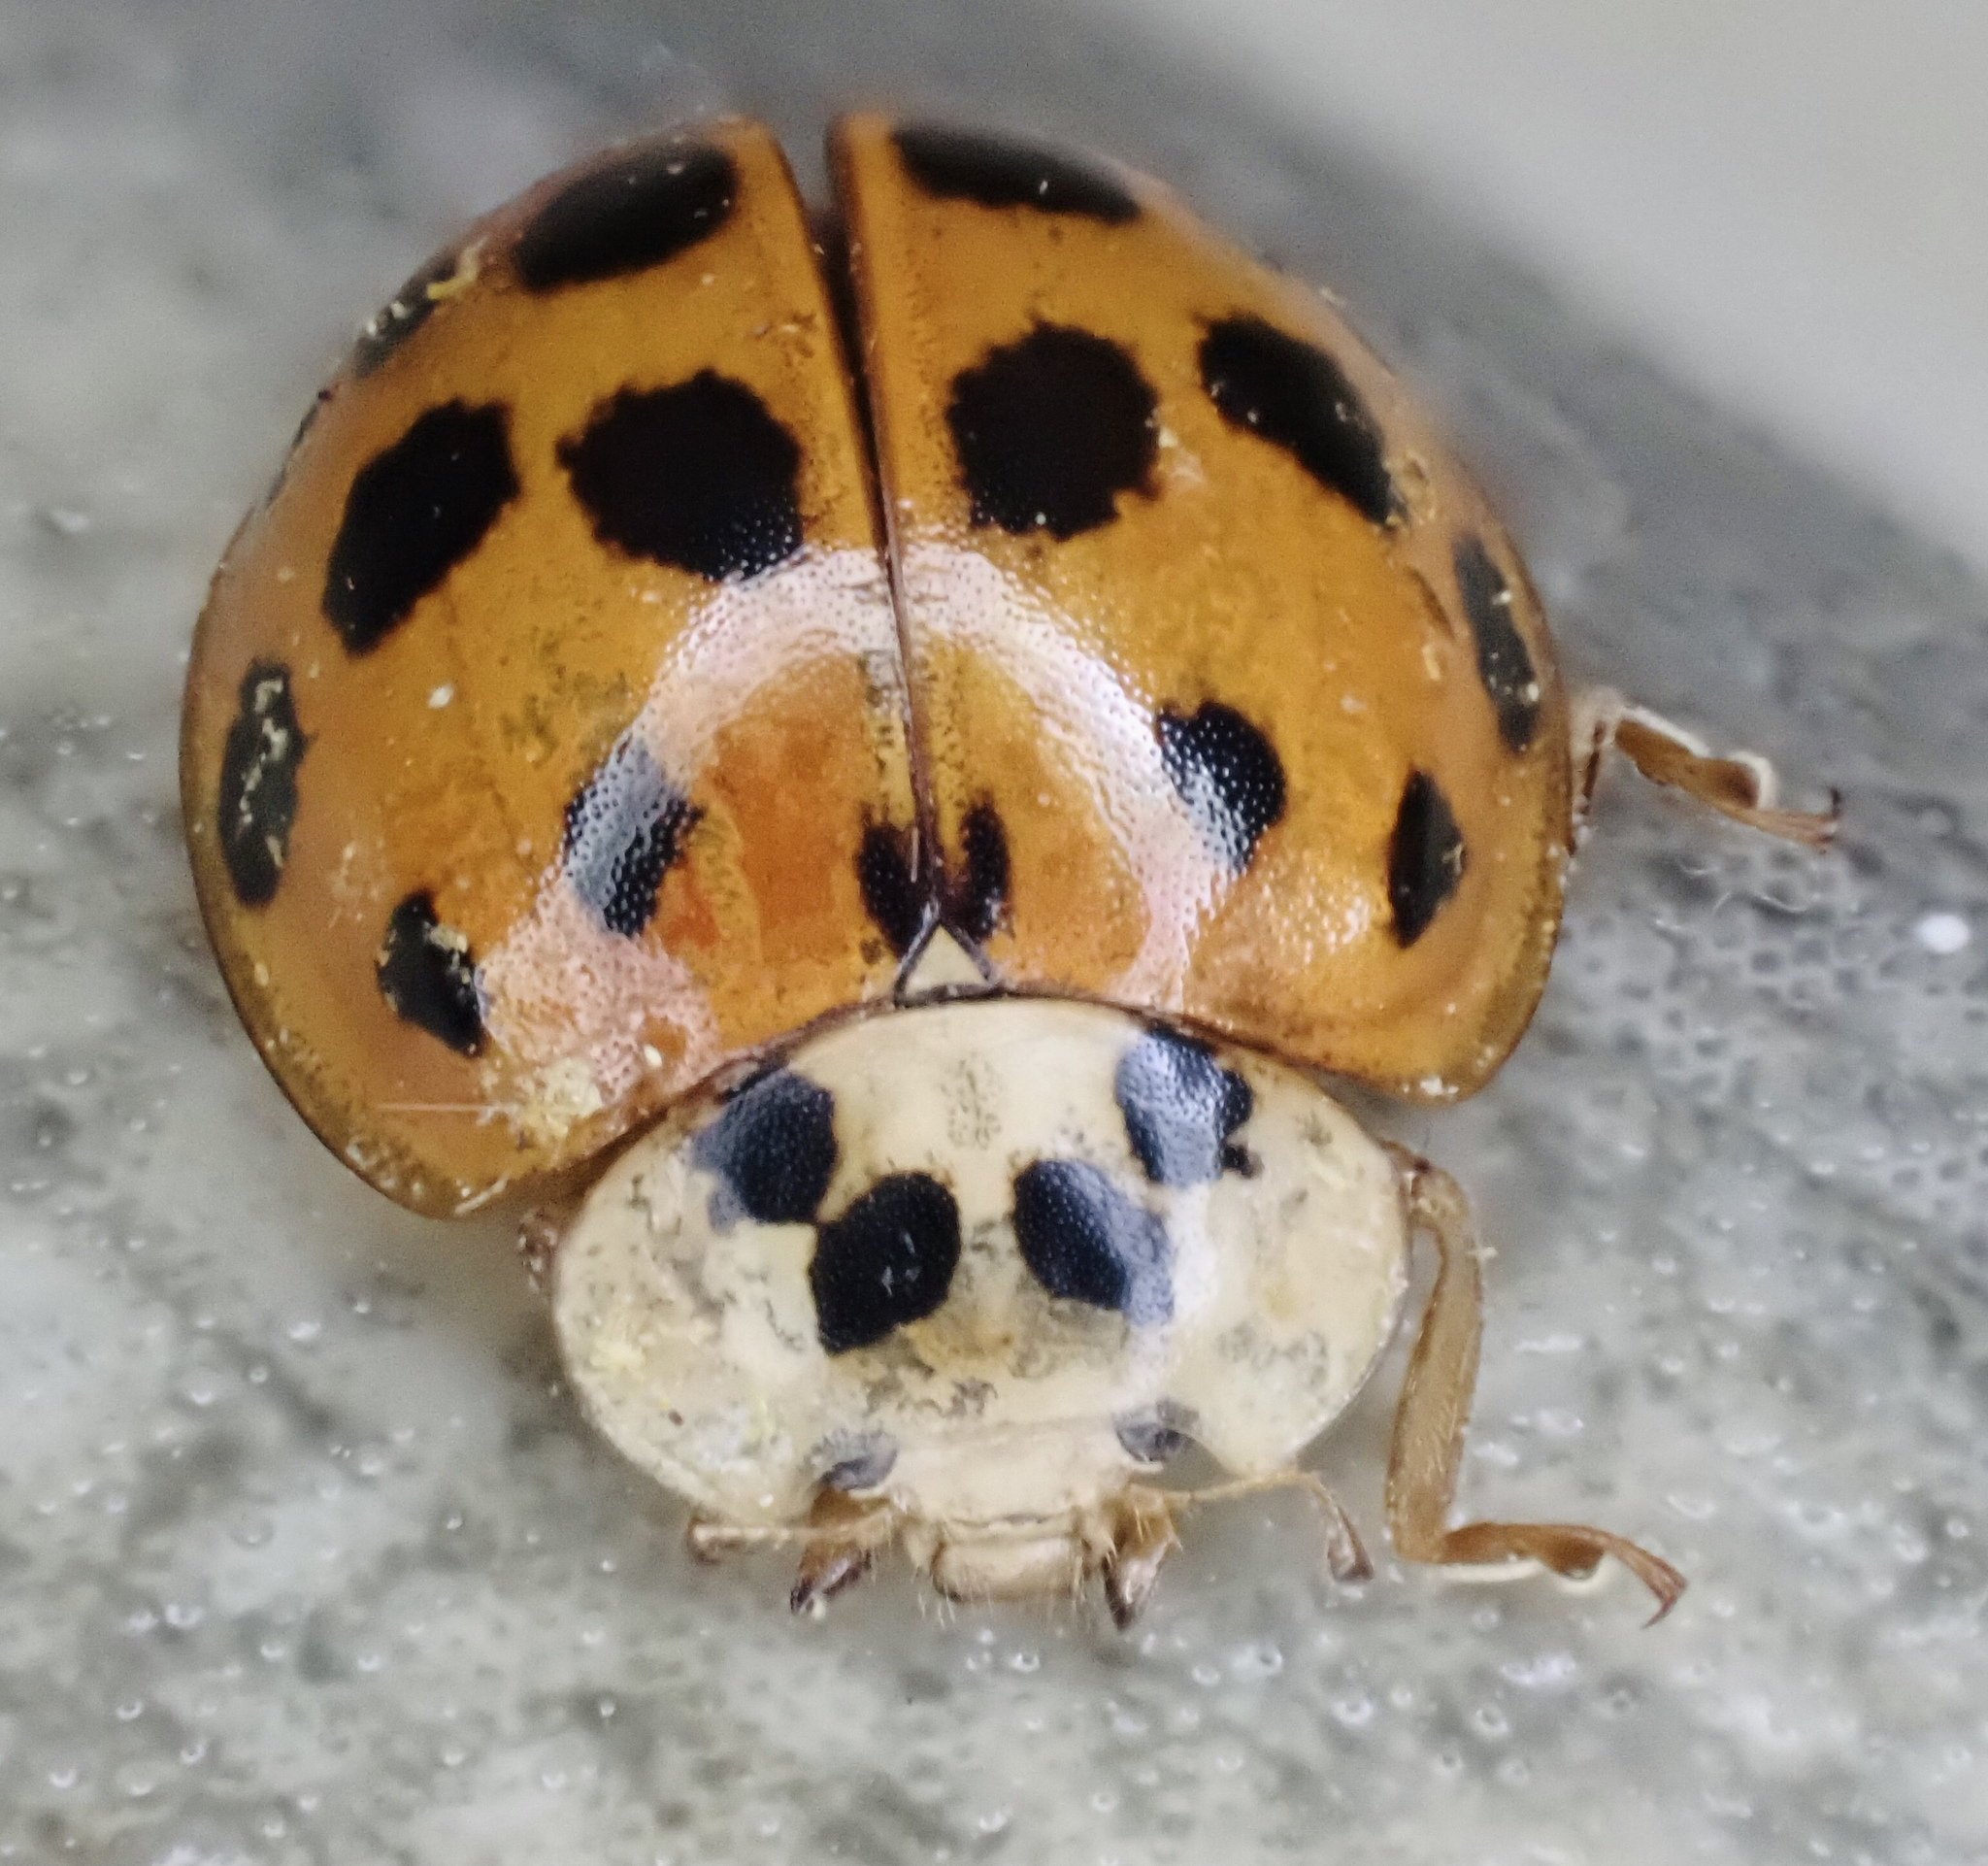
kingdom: Animalia
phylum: Arthropoda
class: Insecta
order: Coleoptera
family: Coccinellidae
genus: Harmonia
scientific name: Harmonia axyridis
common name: Harlequin ladybird
